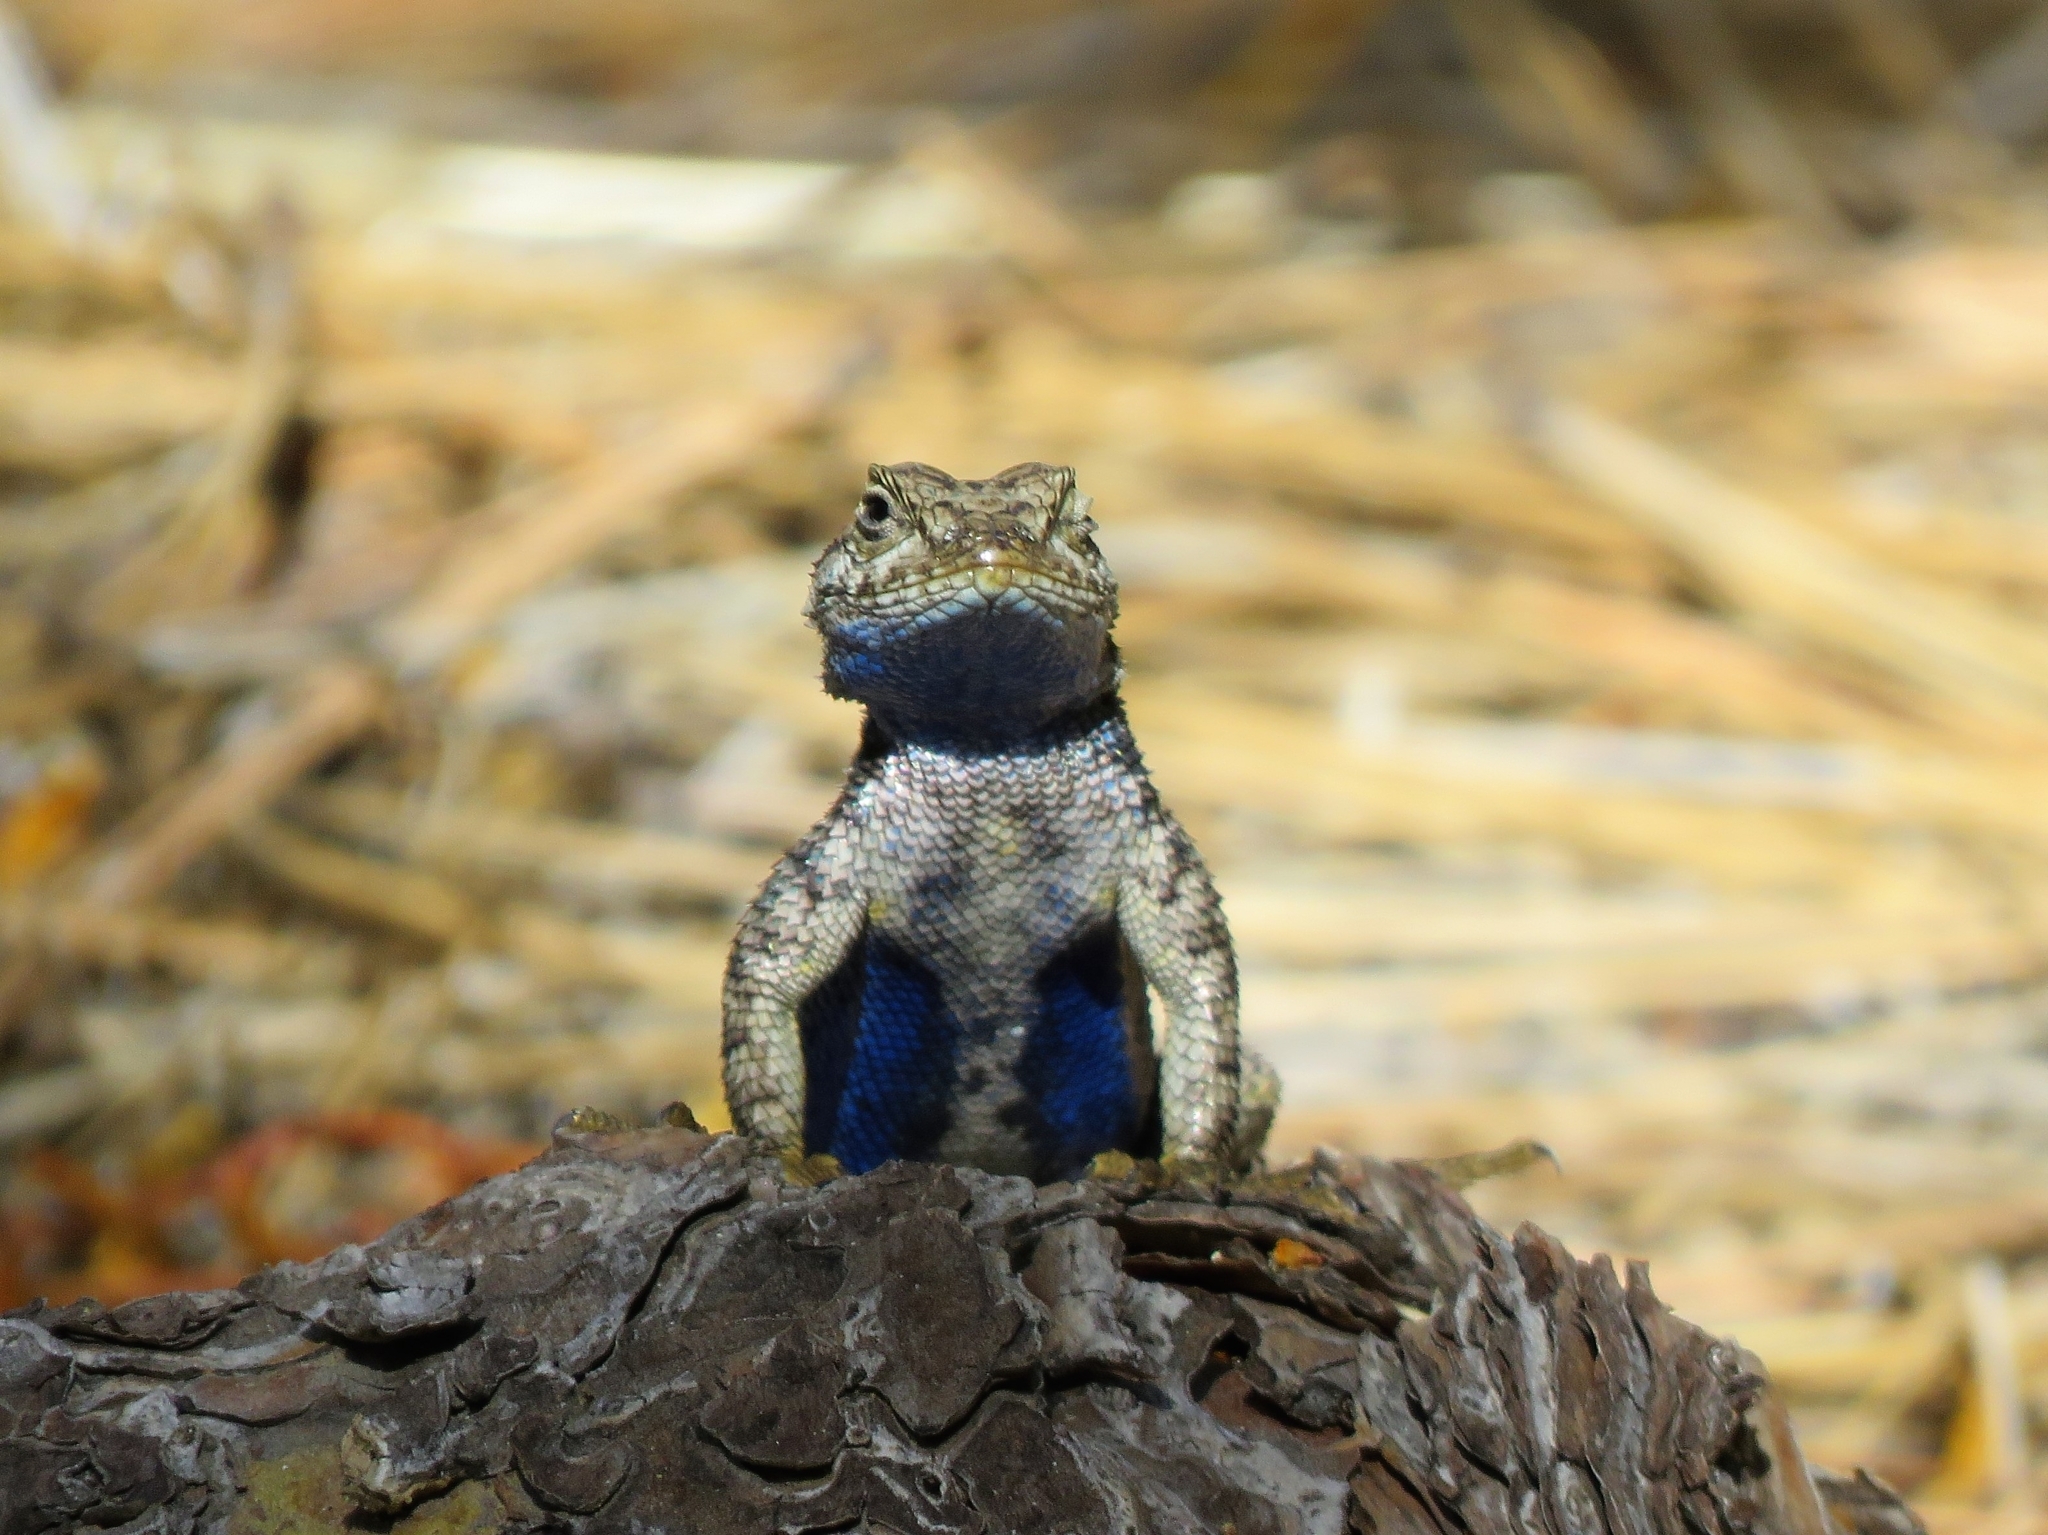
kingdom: Animalia
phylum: Chordata
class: Squamata
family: Phrynosomatidae
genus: Sceloporus
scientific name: Sceloporus occidentalis
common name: Western fence lizard
